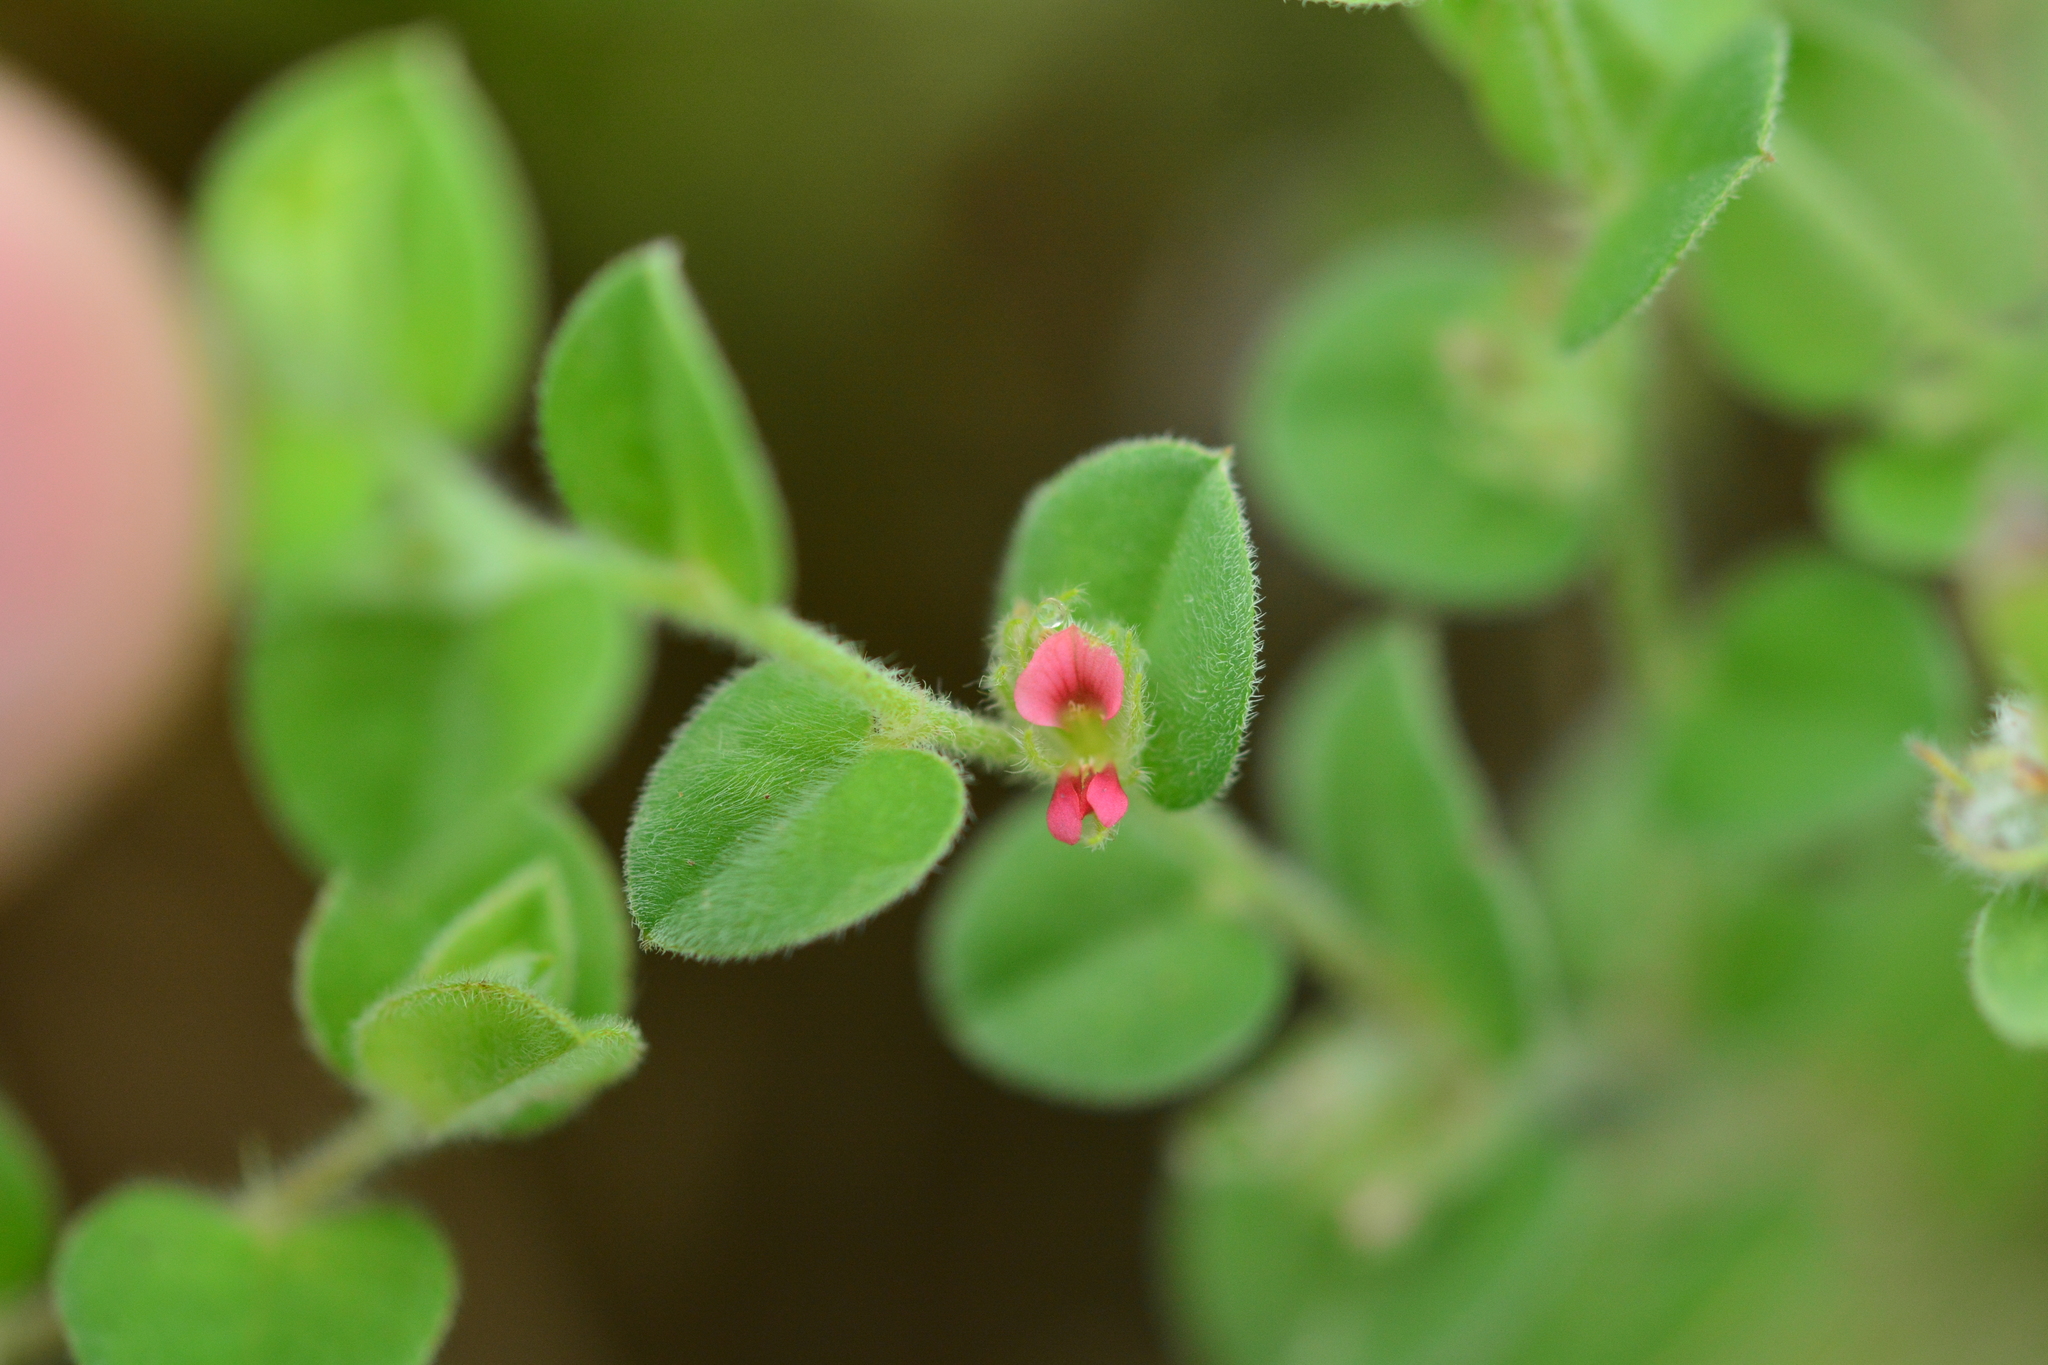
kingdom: Plantae
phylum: Tracheophyta
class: Magnoliopsida
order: Fabales
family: Fabaceae
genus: Indigofera
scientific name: Indigofera cordifolia
